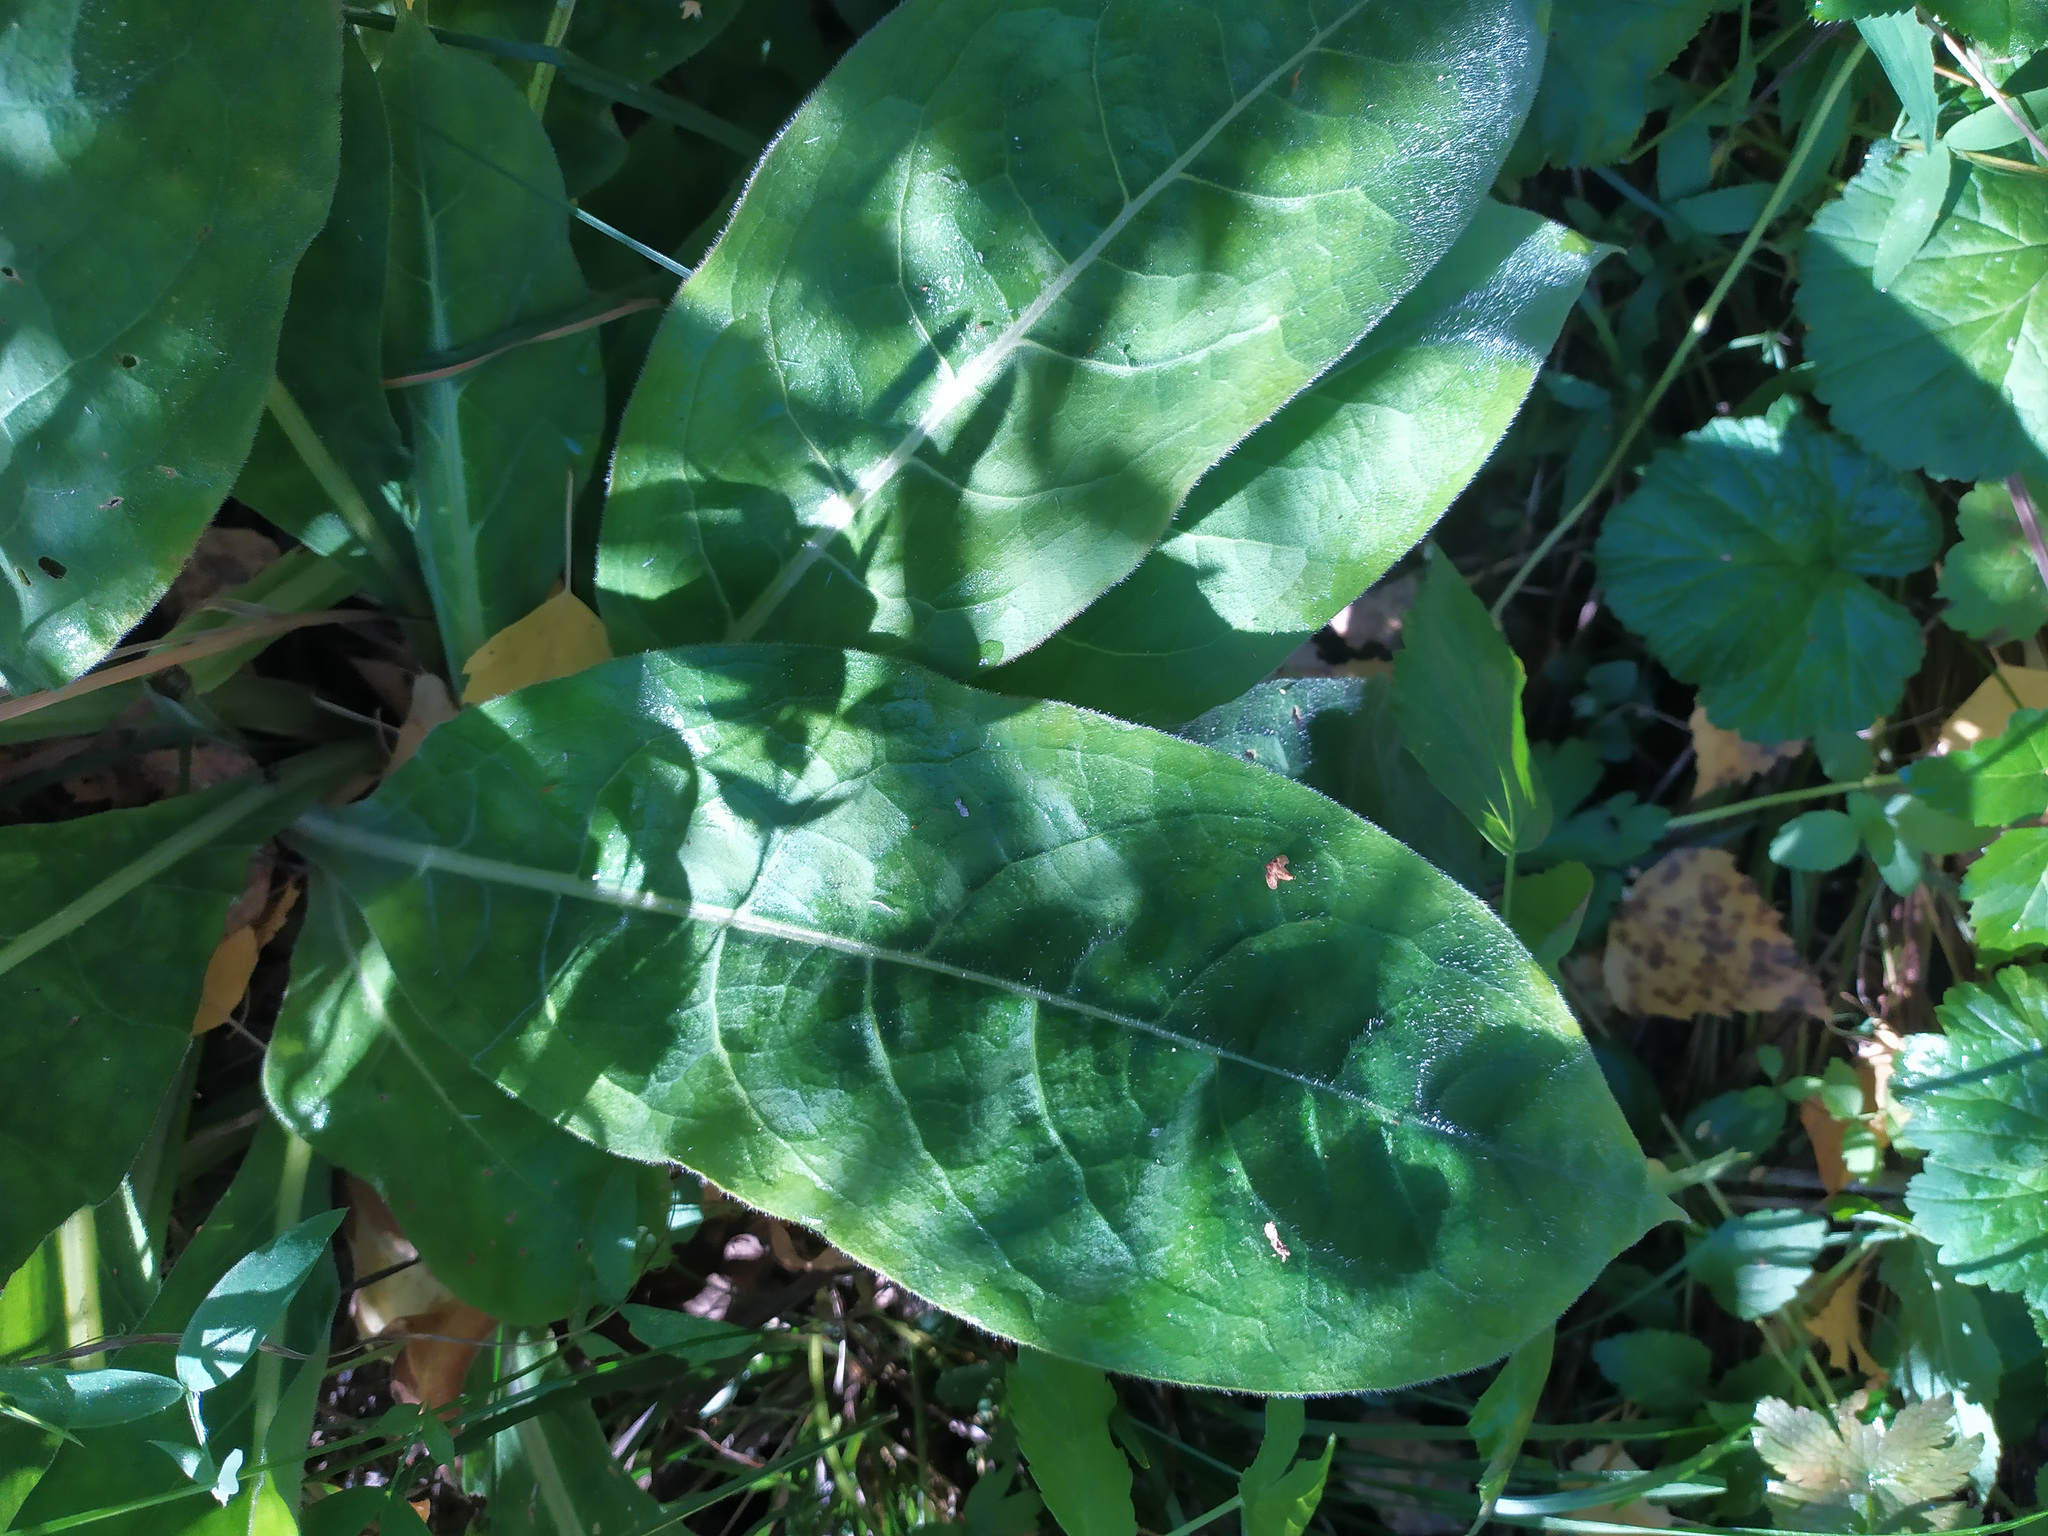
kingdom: Plantae
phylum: Tracheophyta
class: Magnoliopsida
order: Boraginales
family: Boraginaceae
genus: Pulmonaria
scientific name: Pulmonaria mollis
